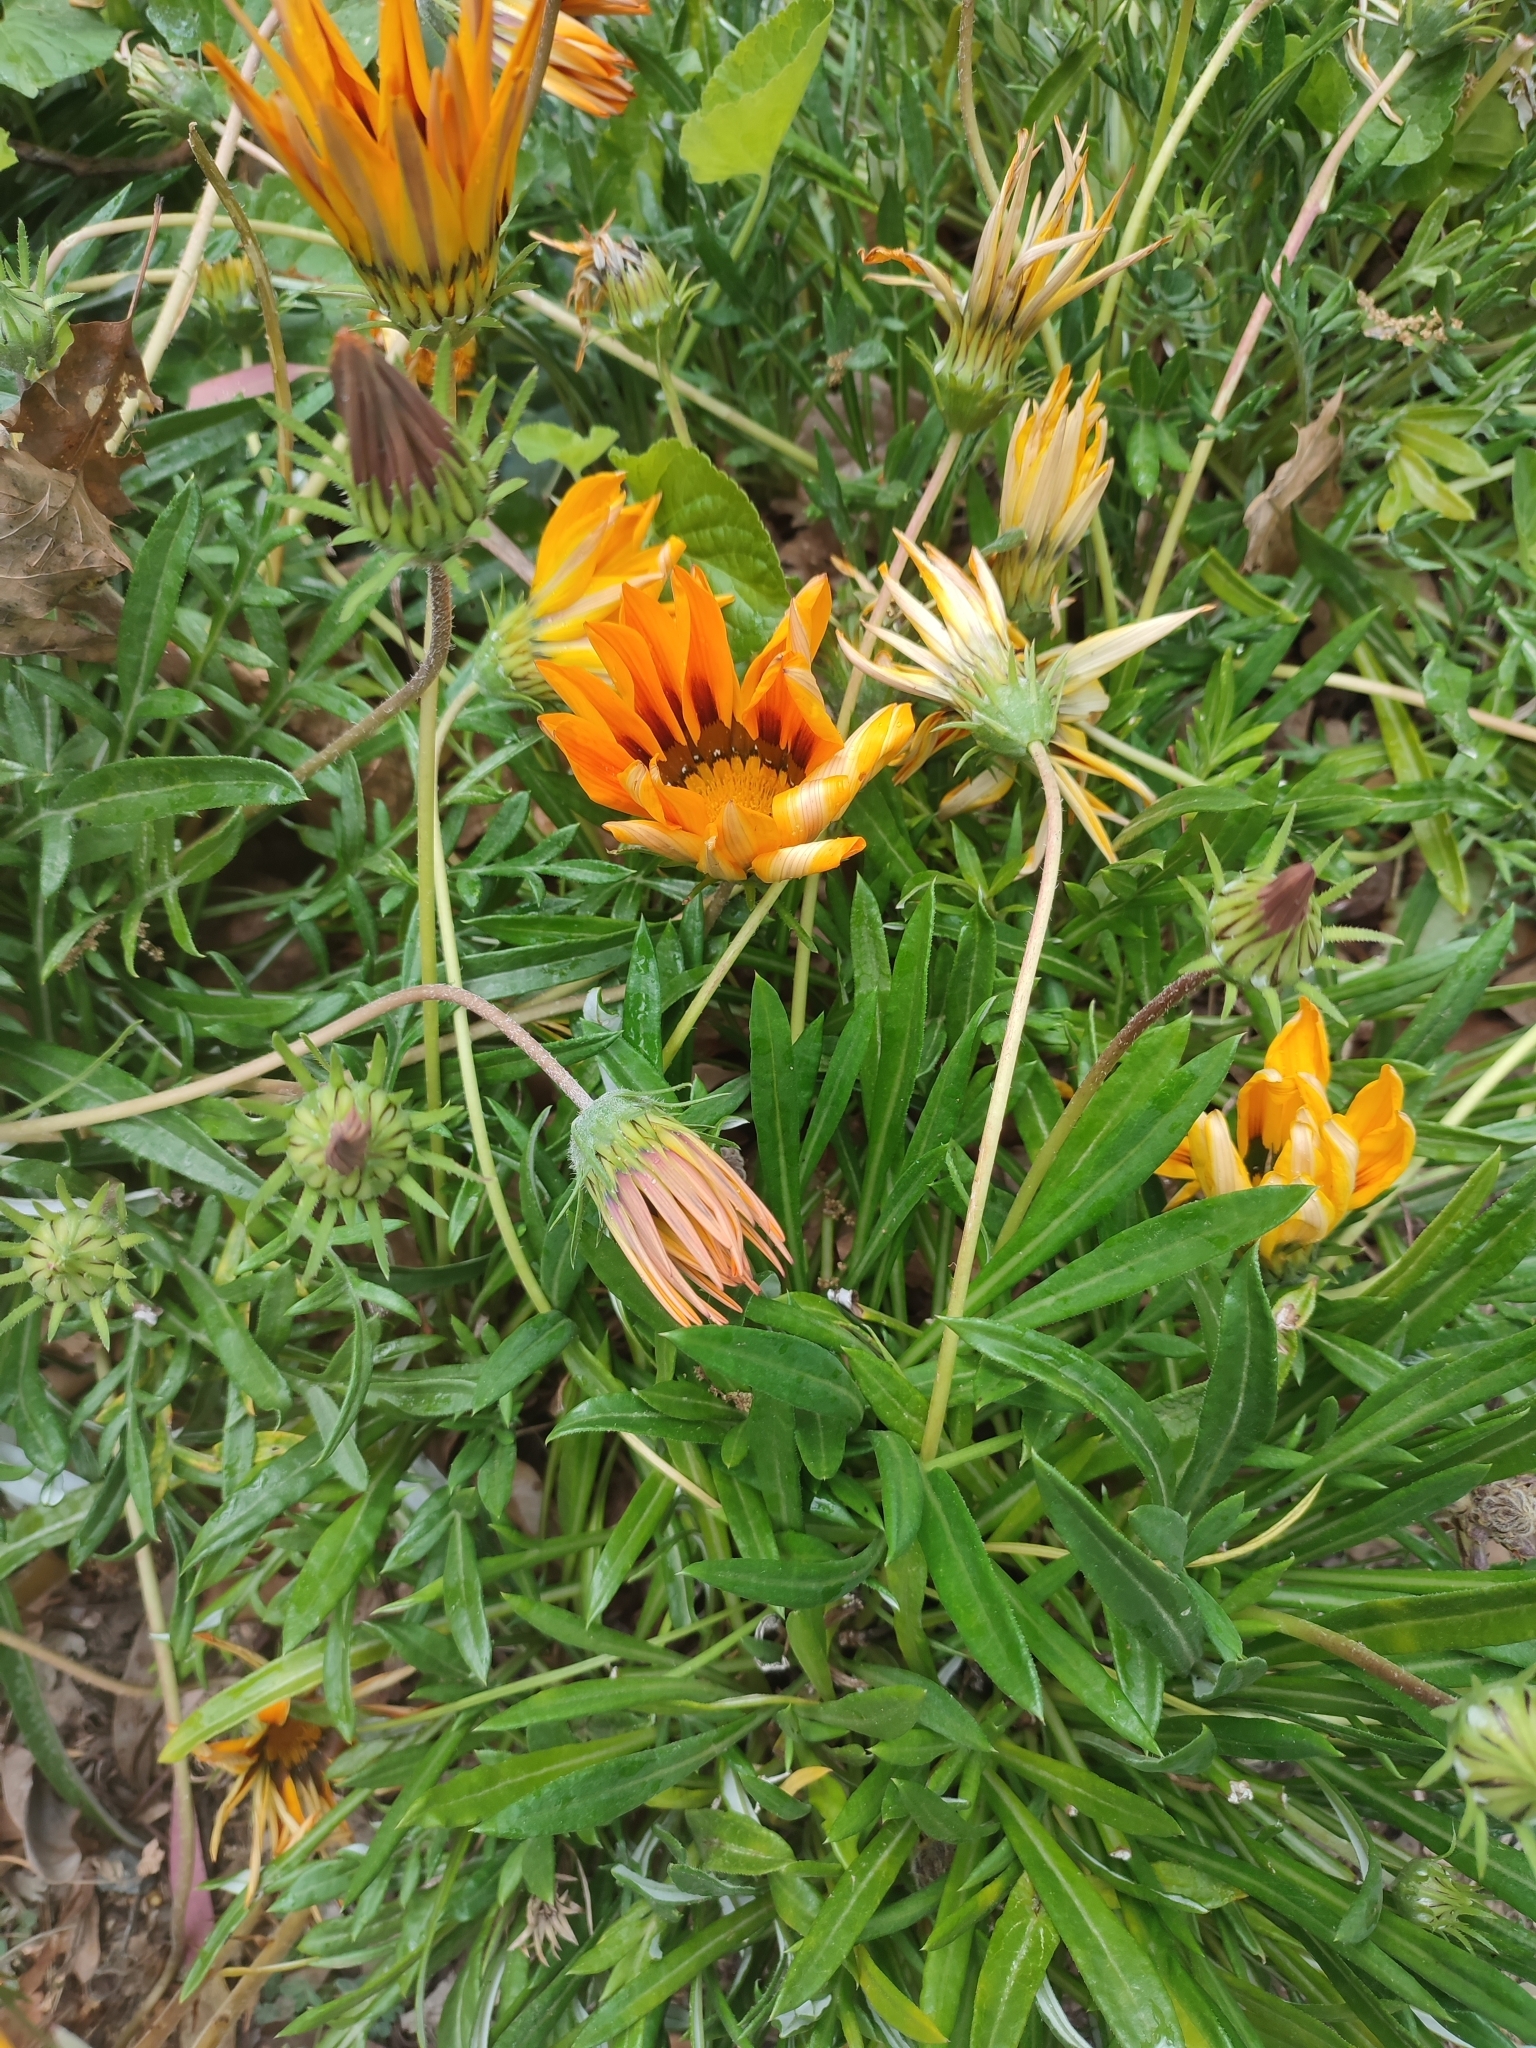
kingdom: Plantae
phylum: Tracheophyta
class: Magnoliopsida
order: Asterales
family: Asteraceae
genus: Gazania
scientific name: Gazania splendens
